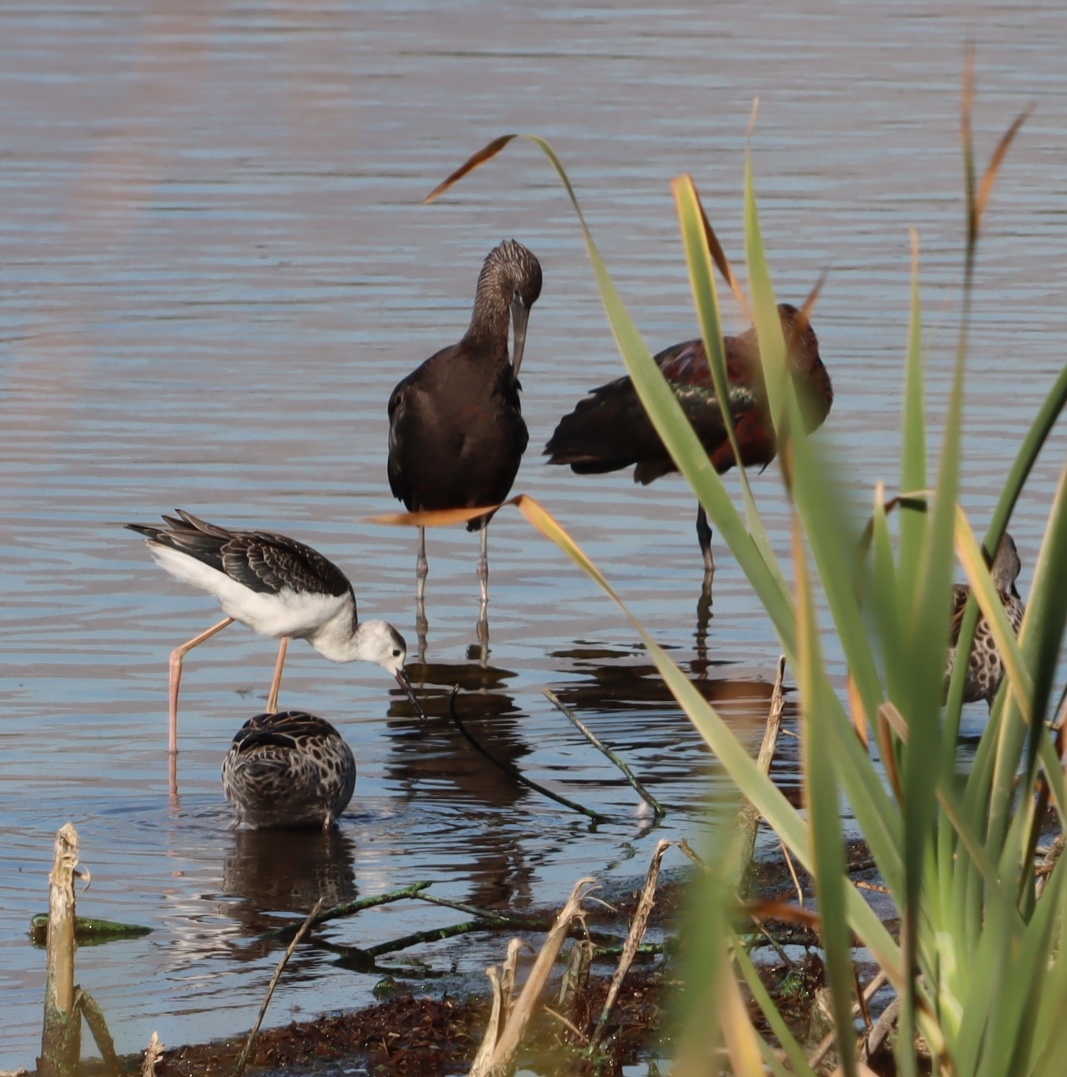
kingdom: Animalia
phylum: Chordata
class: Aves
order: Charadriiformes
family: Recurvirostridae
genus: Himantopus
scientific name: Himantopus himantopus
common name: Black-winged stilt
